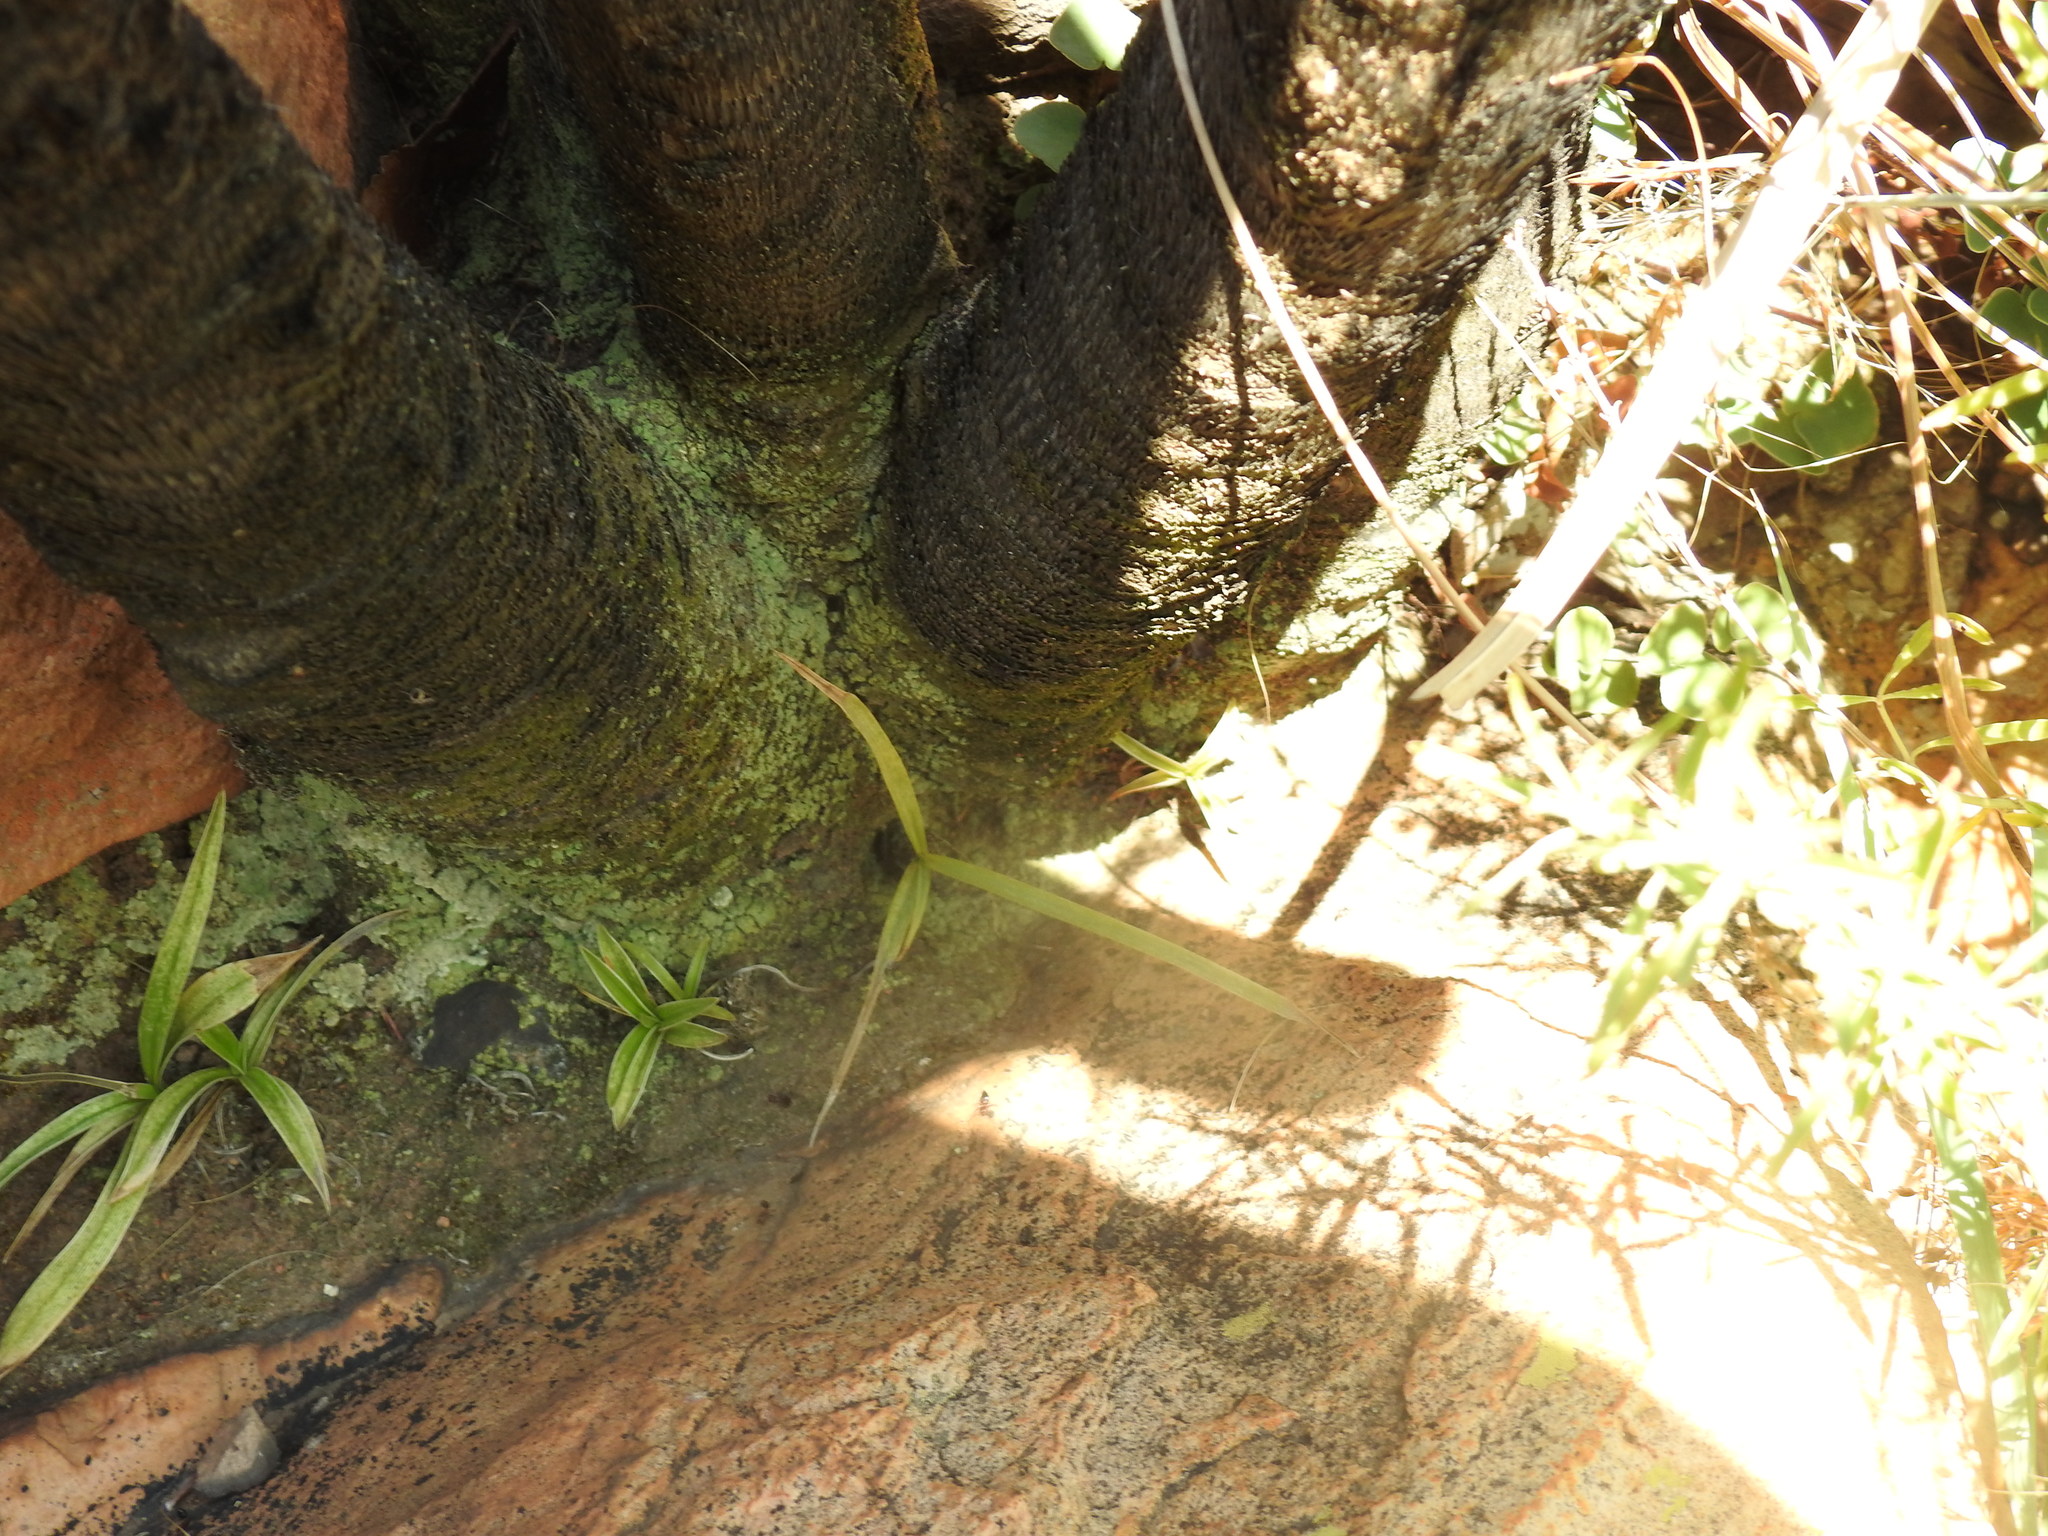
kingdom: Plantae
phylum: Tracheophyta
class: Liliopsida
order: Pandanales
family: Velloziaceae
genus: Xerophyta
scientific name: Xerophyta retinervis
